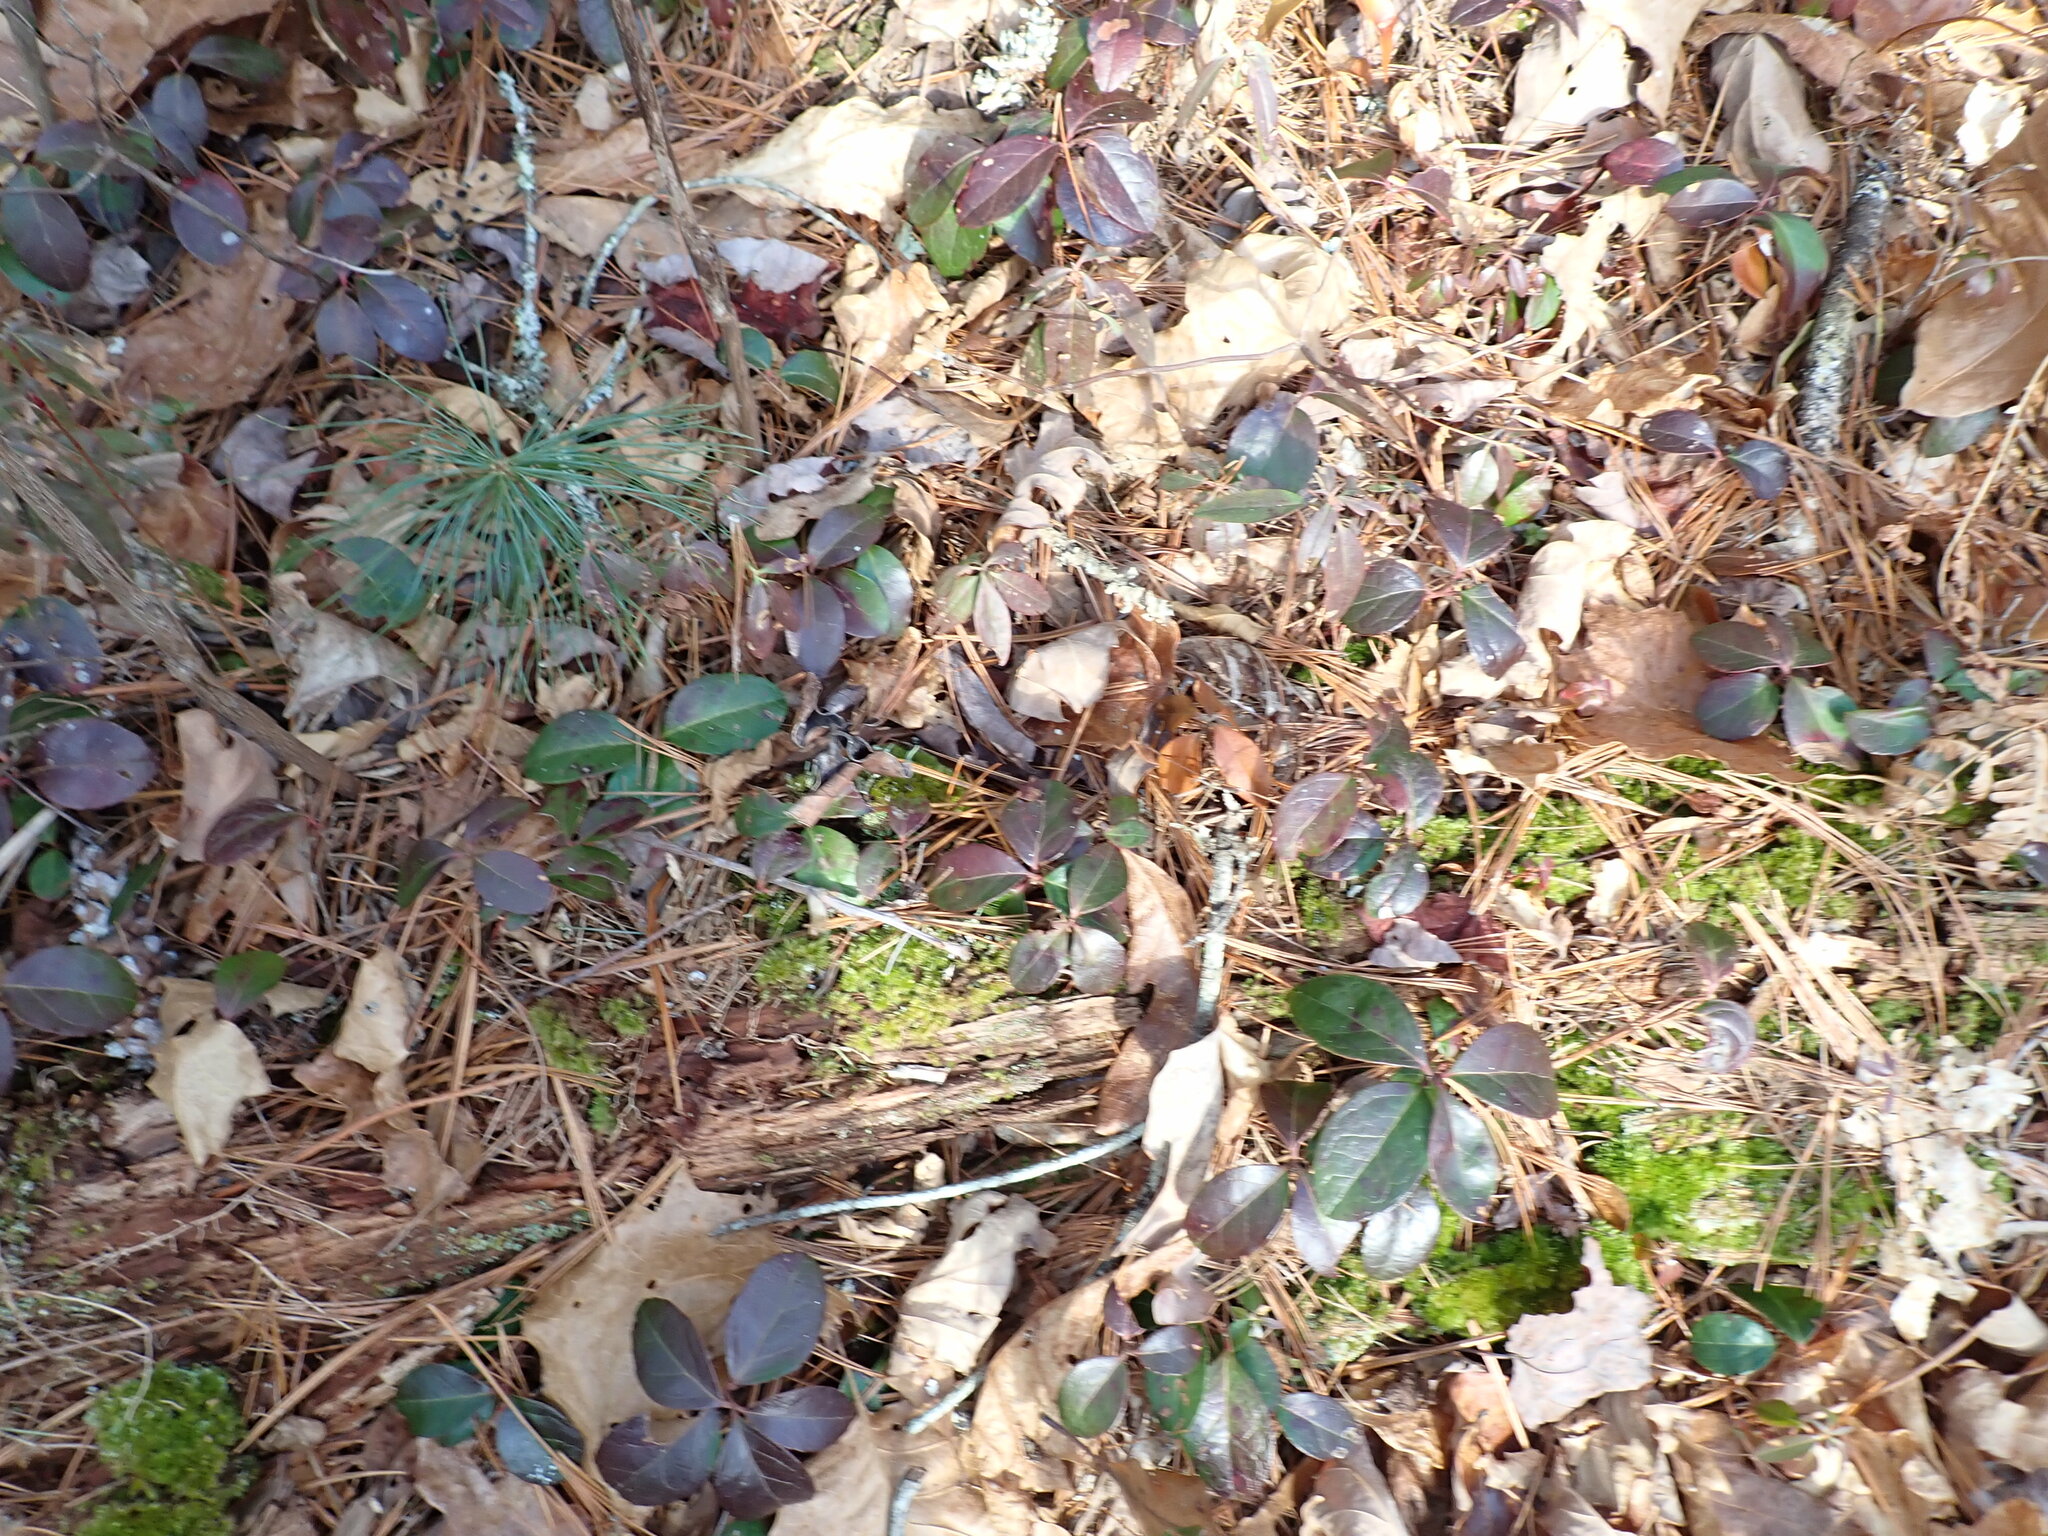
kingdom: Plantae
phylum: Tracheophyta
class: Magnoliopsida
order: Ericales
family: Ericaceae
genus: Gaultheria
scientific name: Gaultheria procumbens
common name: Checkerberry
